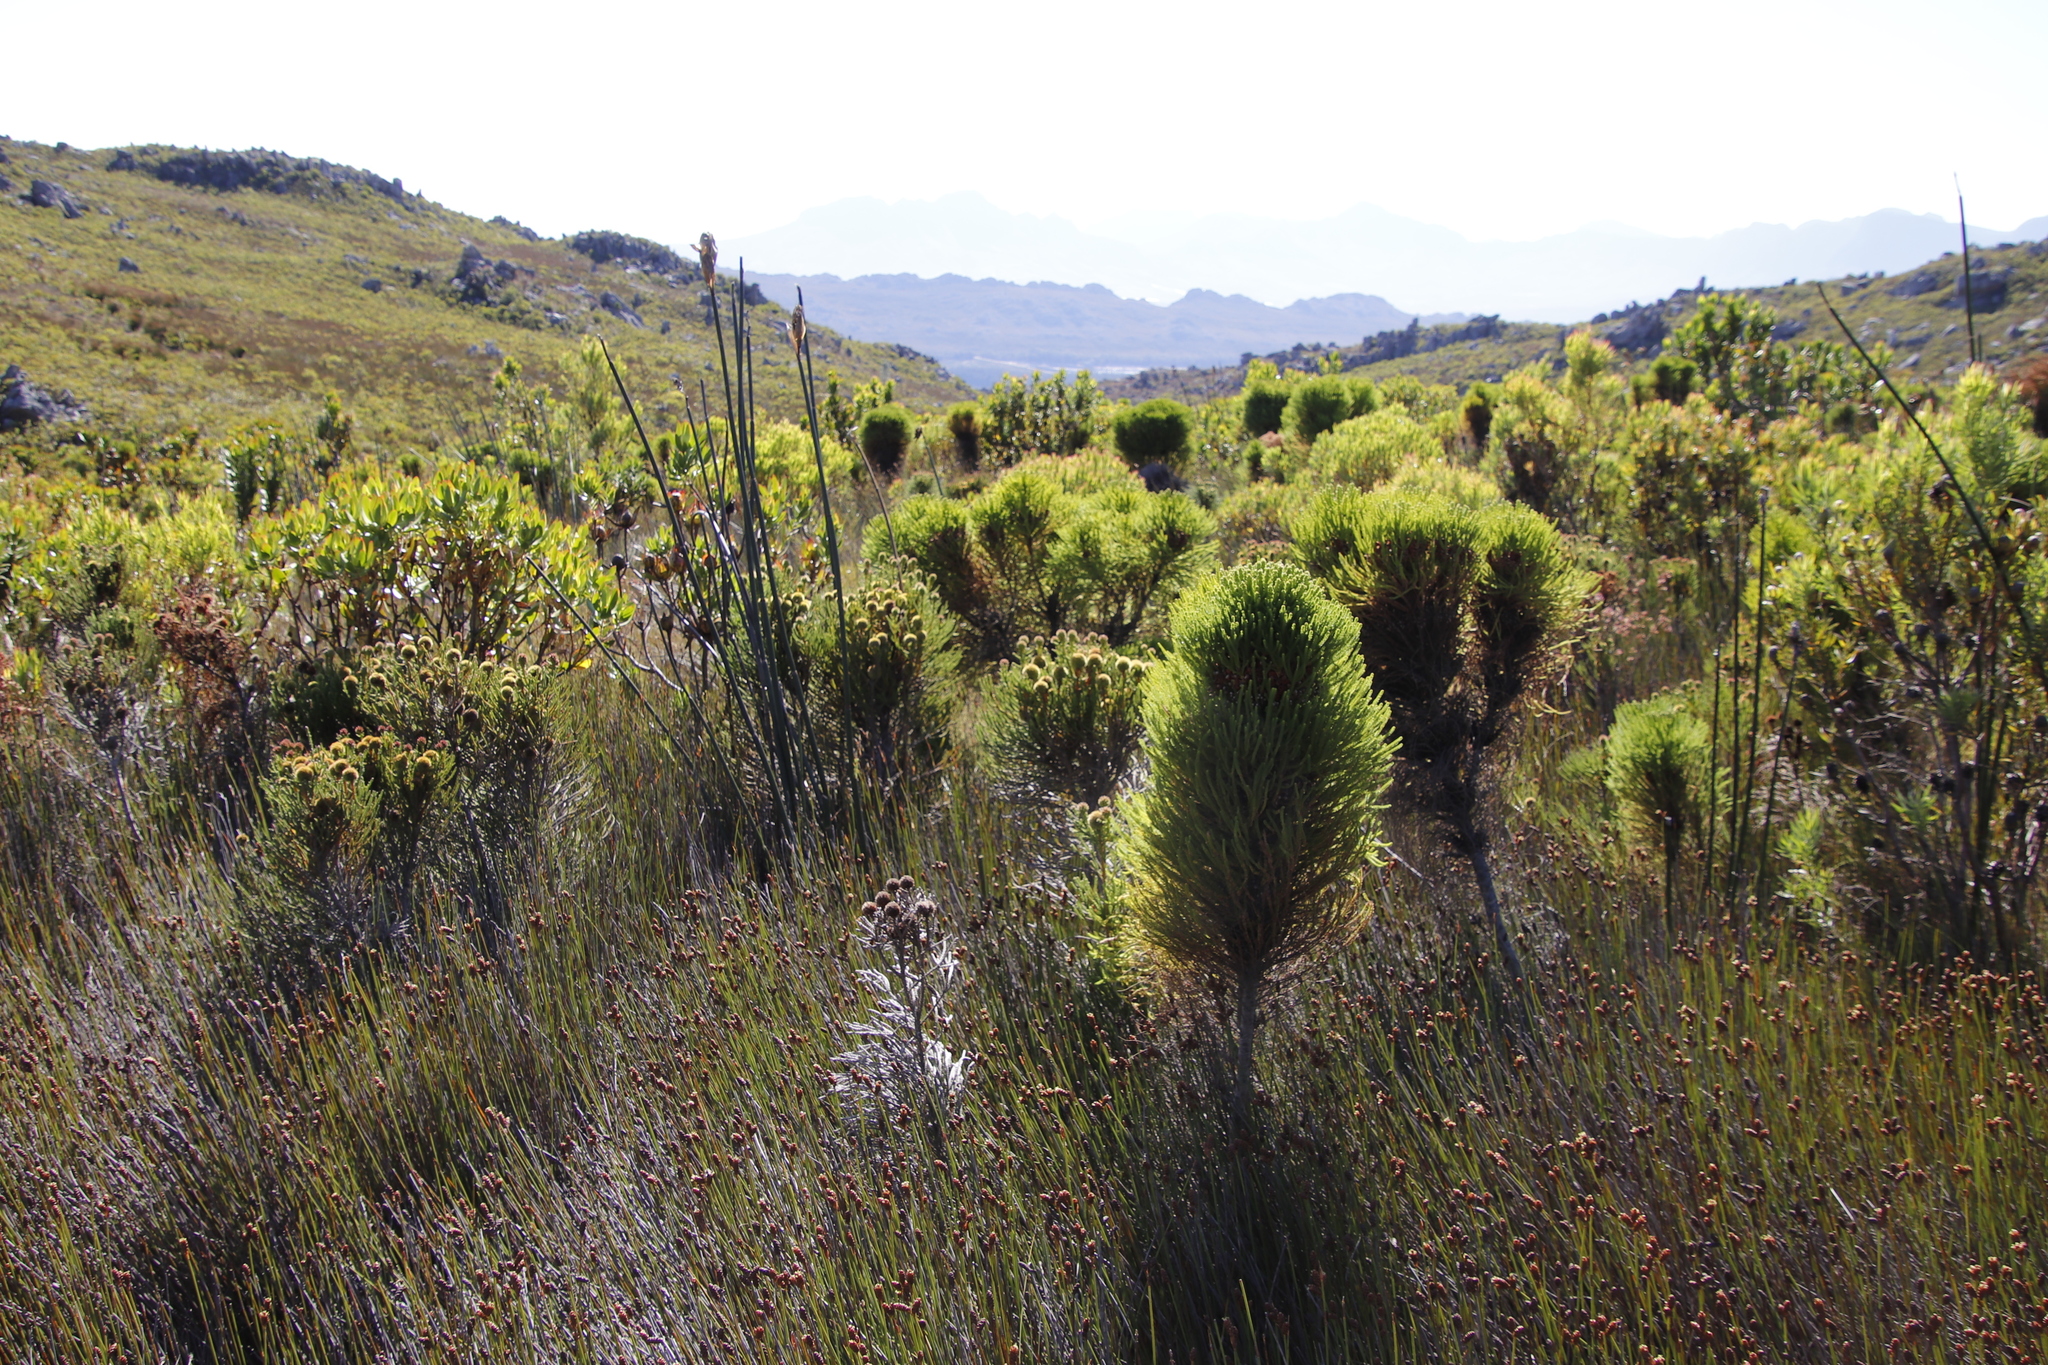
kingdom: Plantae
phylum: Tracheophyta
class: Magnoliopsida
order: Bruniales
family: Bruniaceae
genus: Berzelia
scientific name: Berzelia alopecurioides
